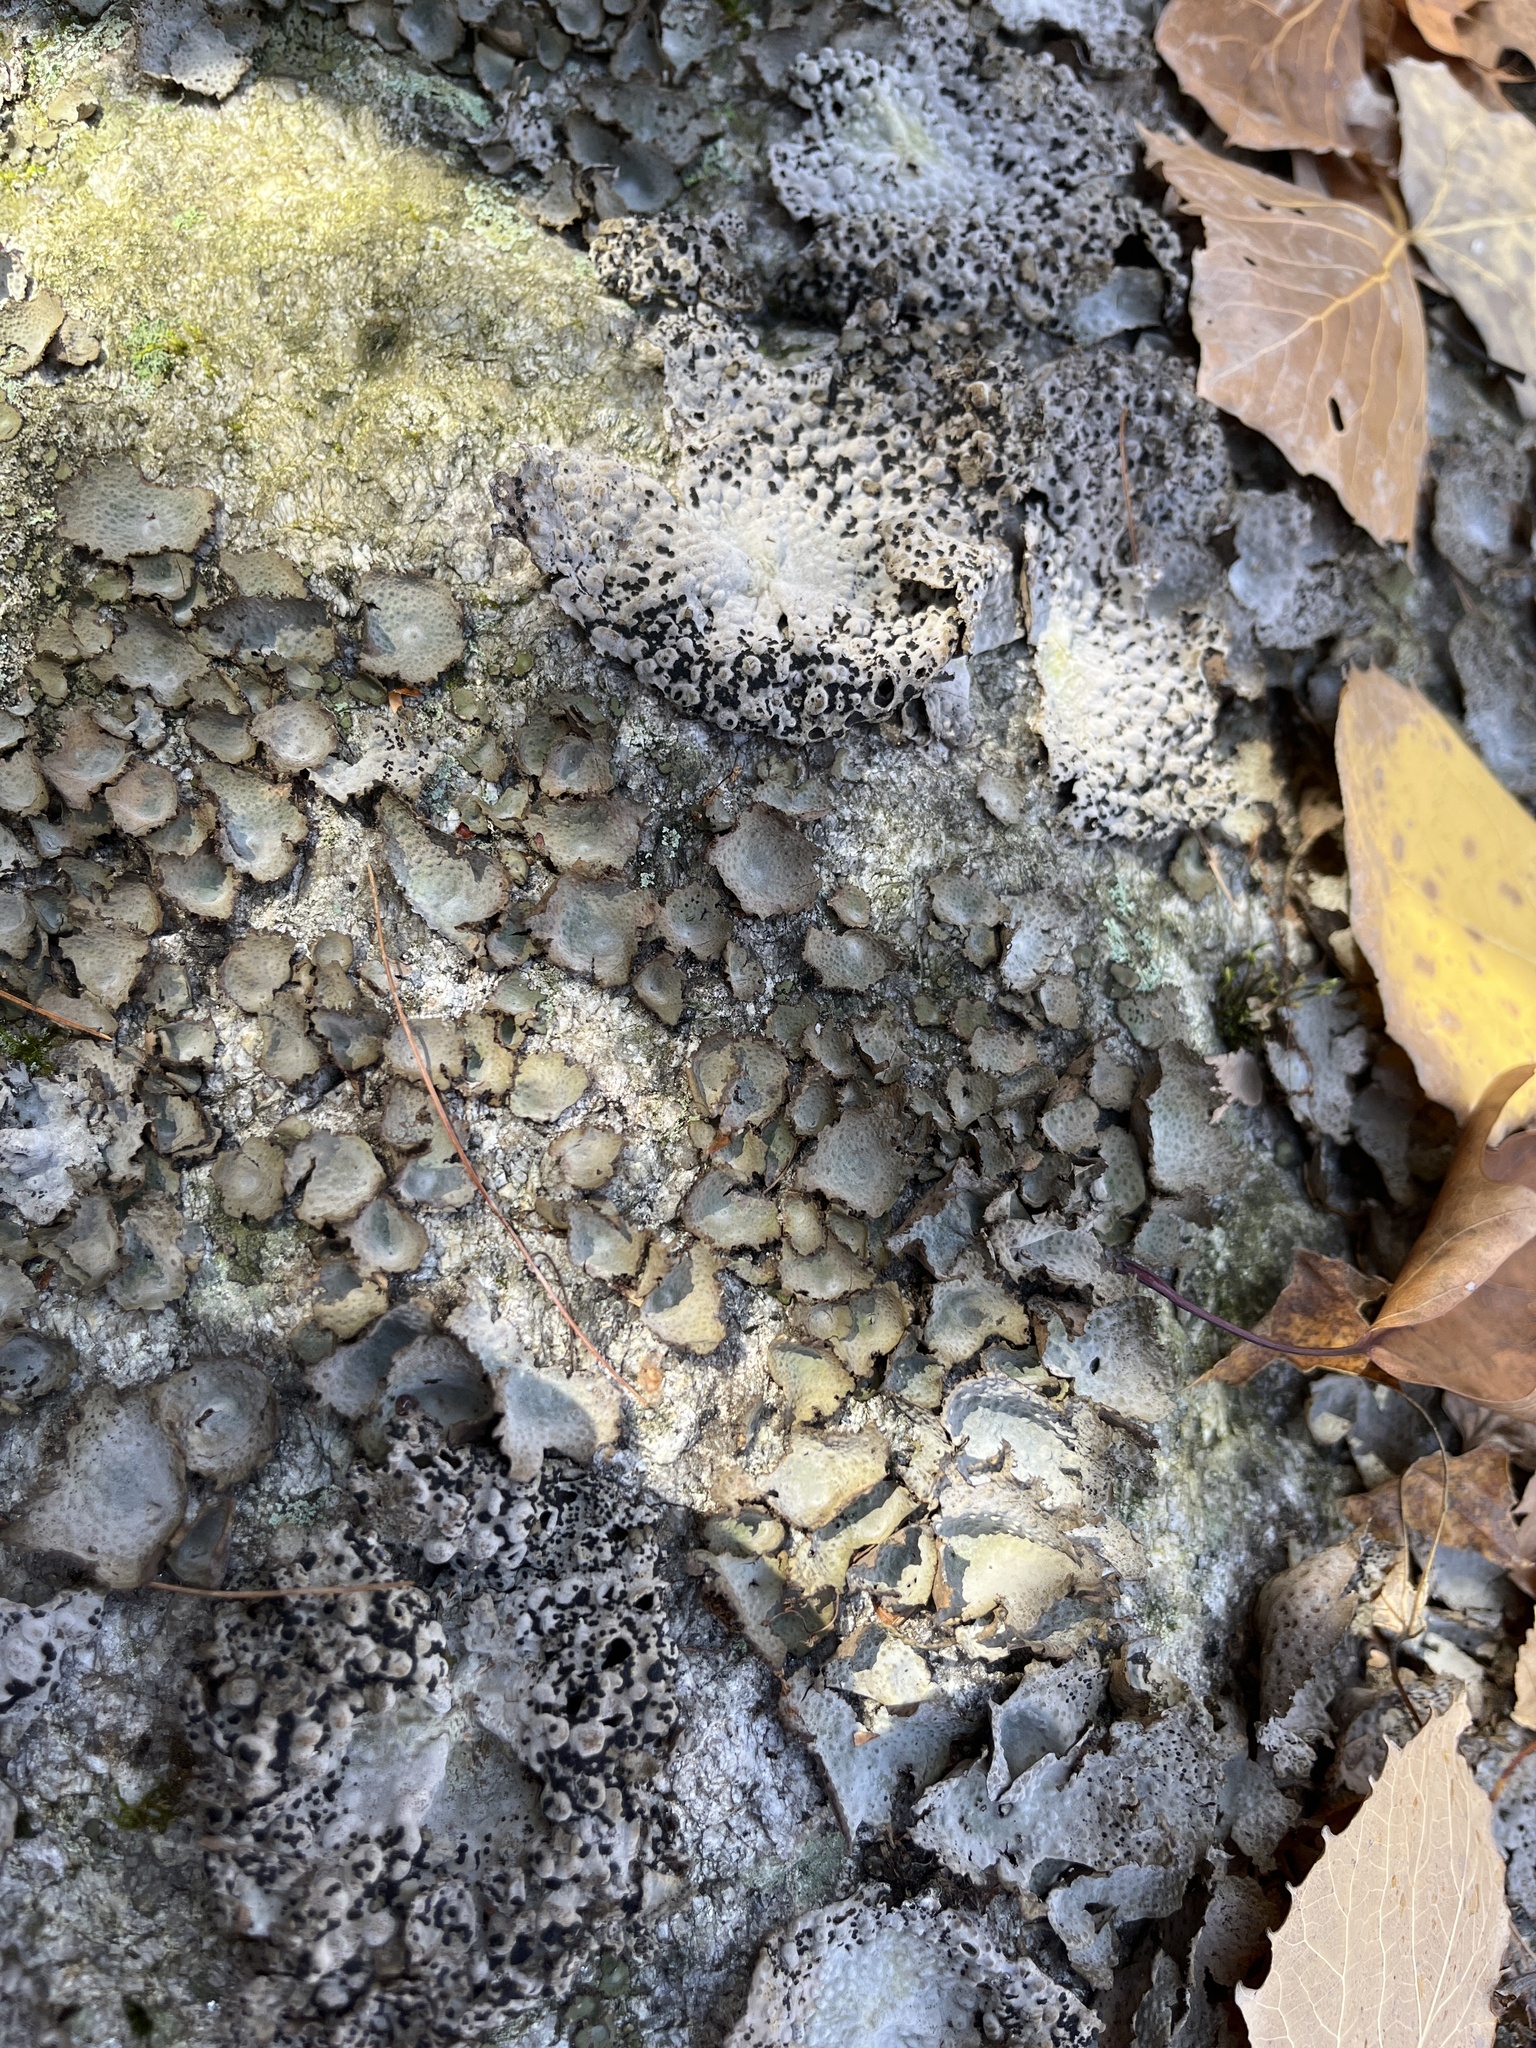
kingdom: Fungi
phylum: Ascomycota
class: Lecanoromycetes
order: Umbilicariales
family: Umbilicariaceae
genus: Lasallia
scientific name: Lasallia papulosa
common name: Common toadskin lichen
